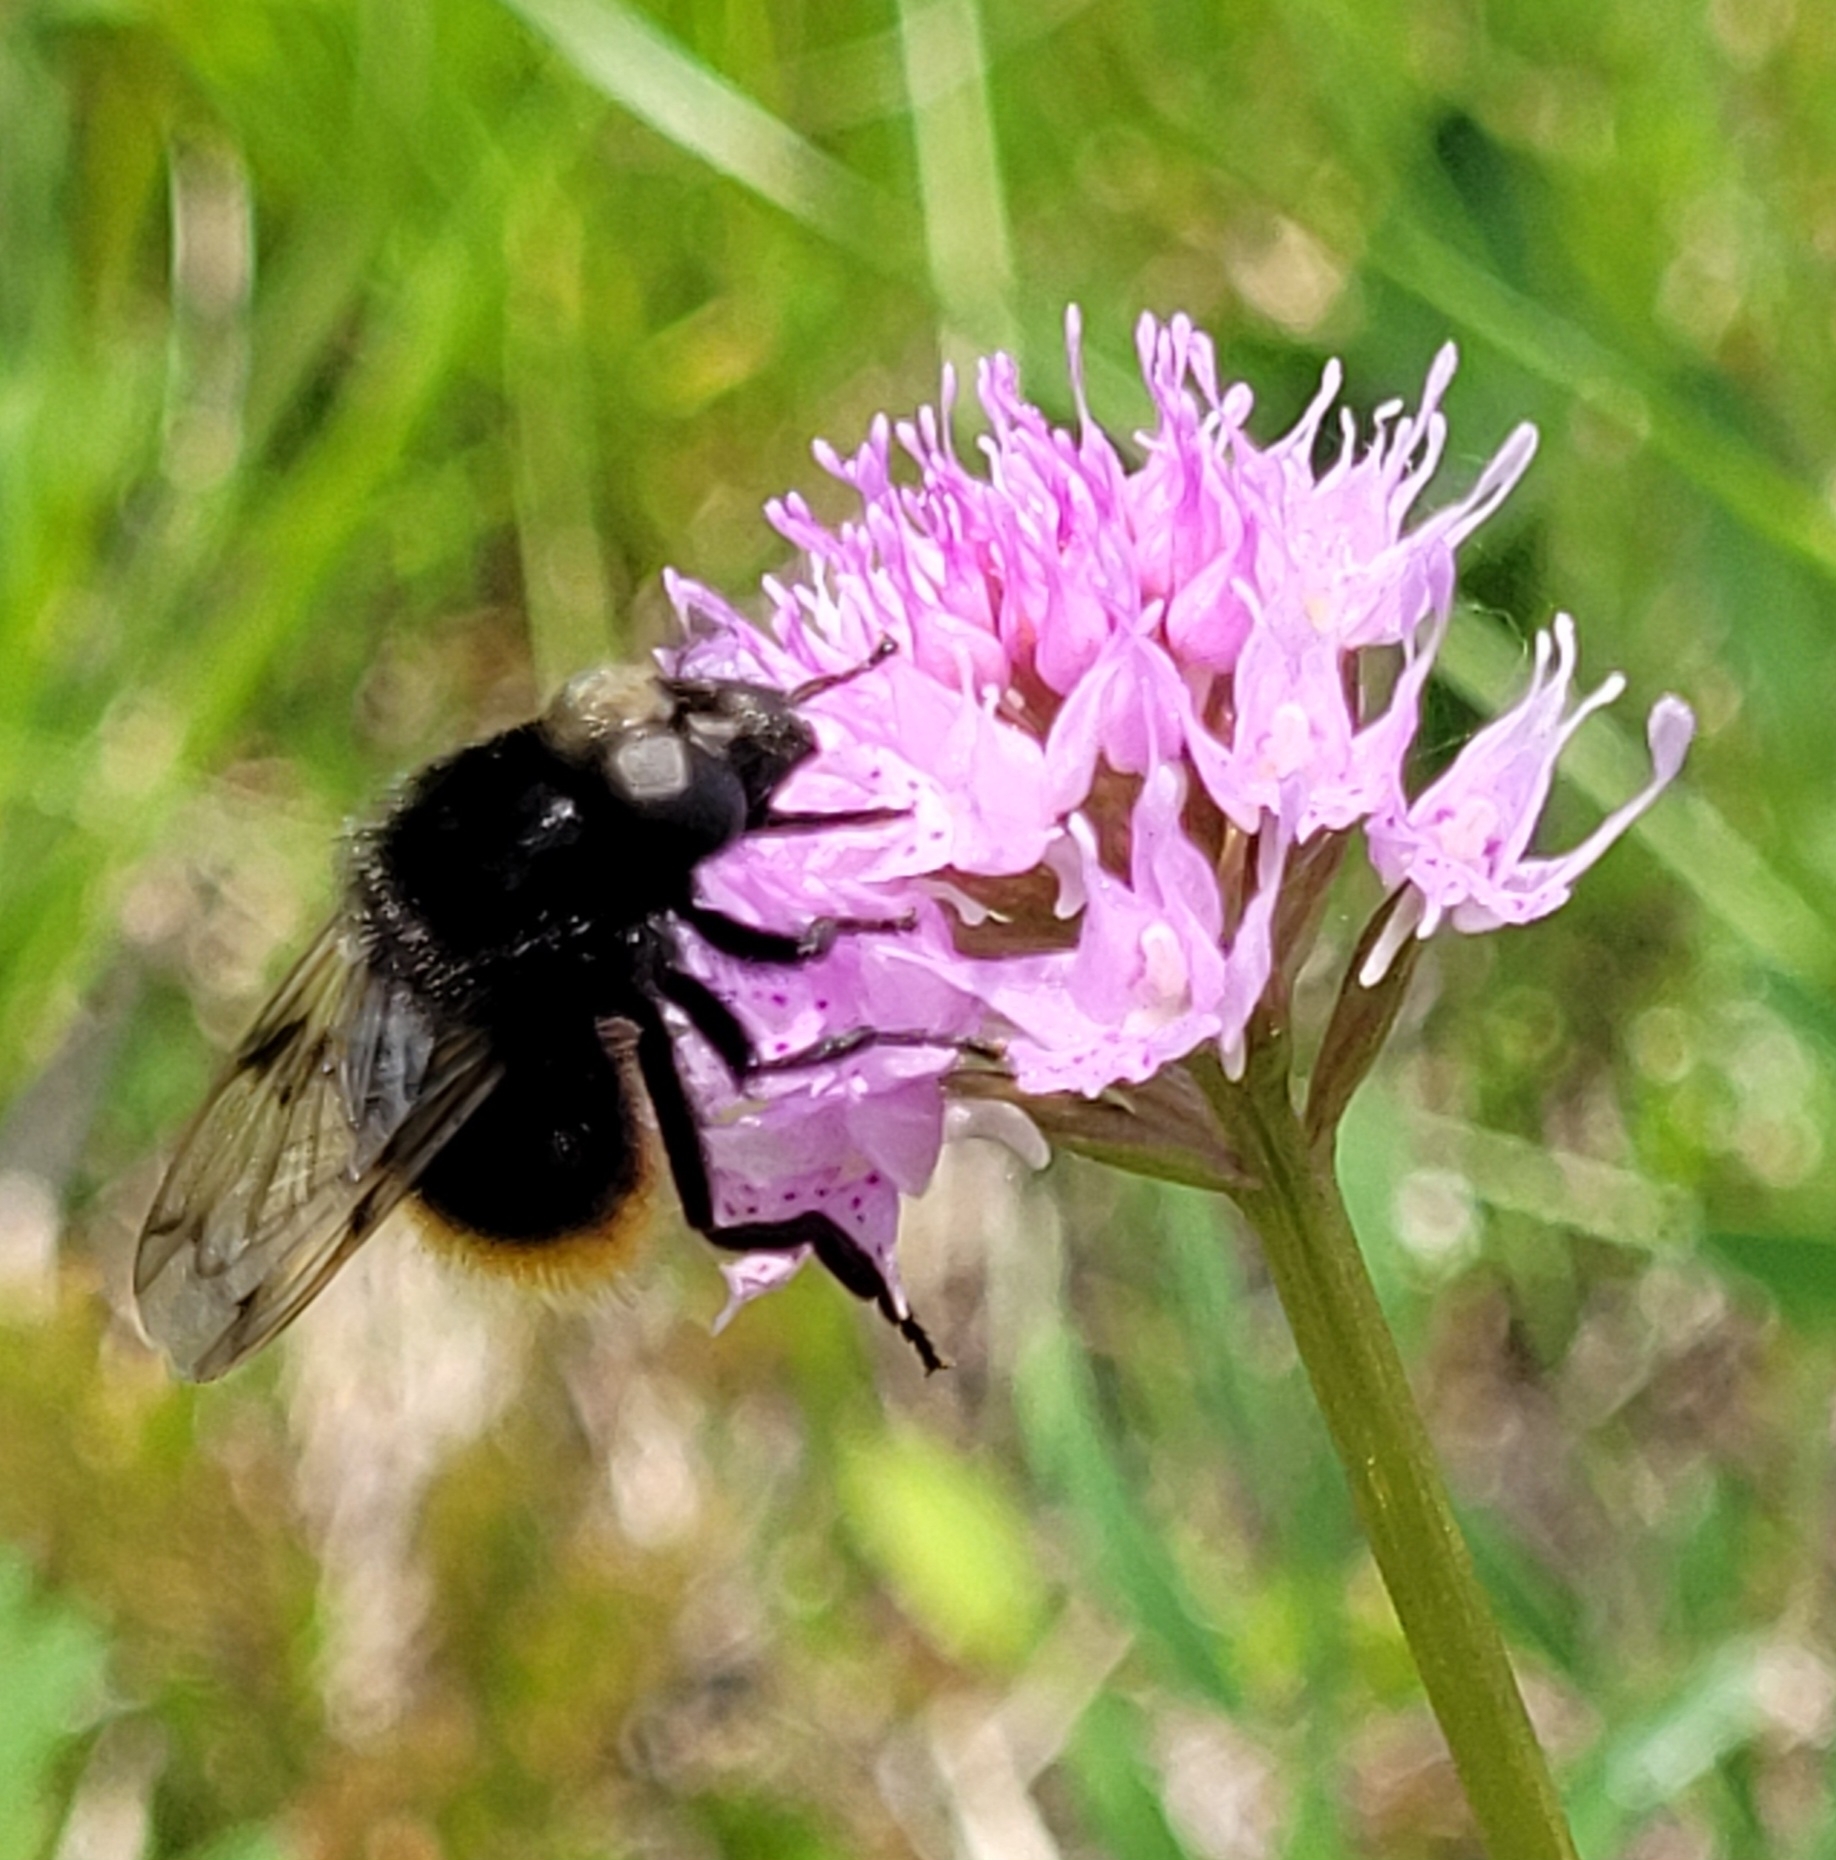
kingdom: Animalia
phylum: Arthropoda
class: Insecta
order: Diptera
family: Syrphidae
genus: Volucella
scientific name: Volucella bombylans
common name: Bumble bee hover fly
